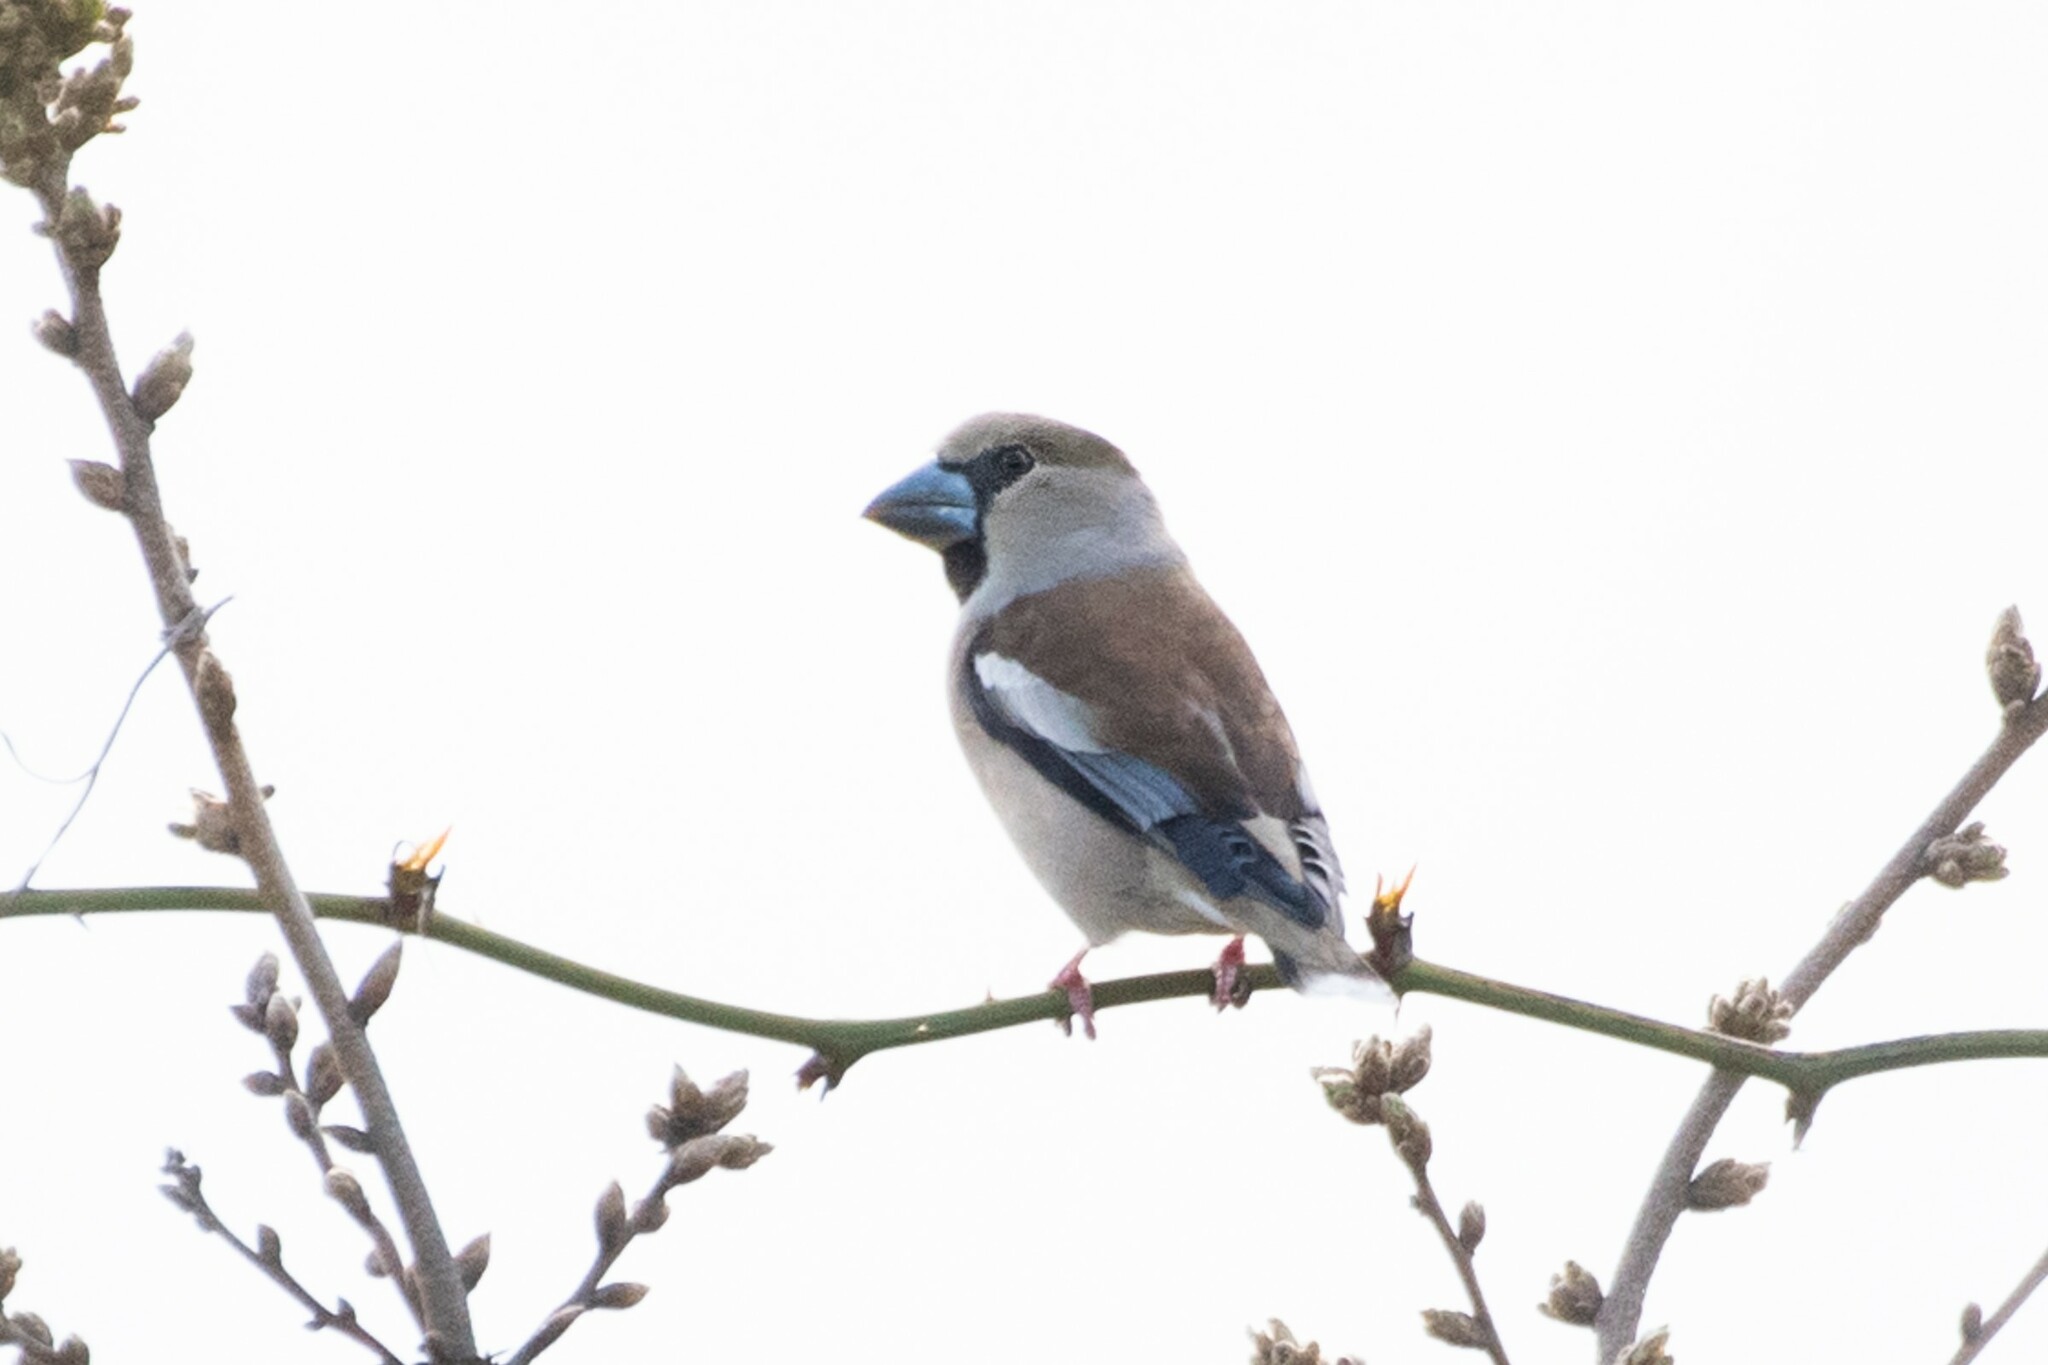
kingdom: Animalia
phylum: Chordata
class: Aves
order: Passeriformes
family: Fringillidae
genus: Coccothraustes
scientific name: Coccothraustes coccothraustes
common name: Hawfinch
